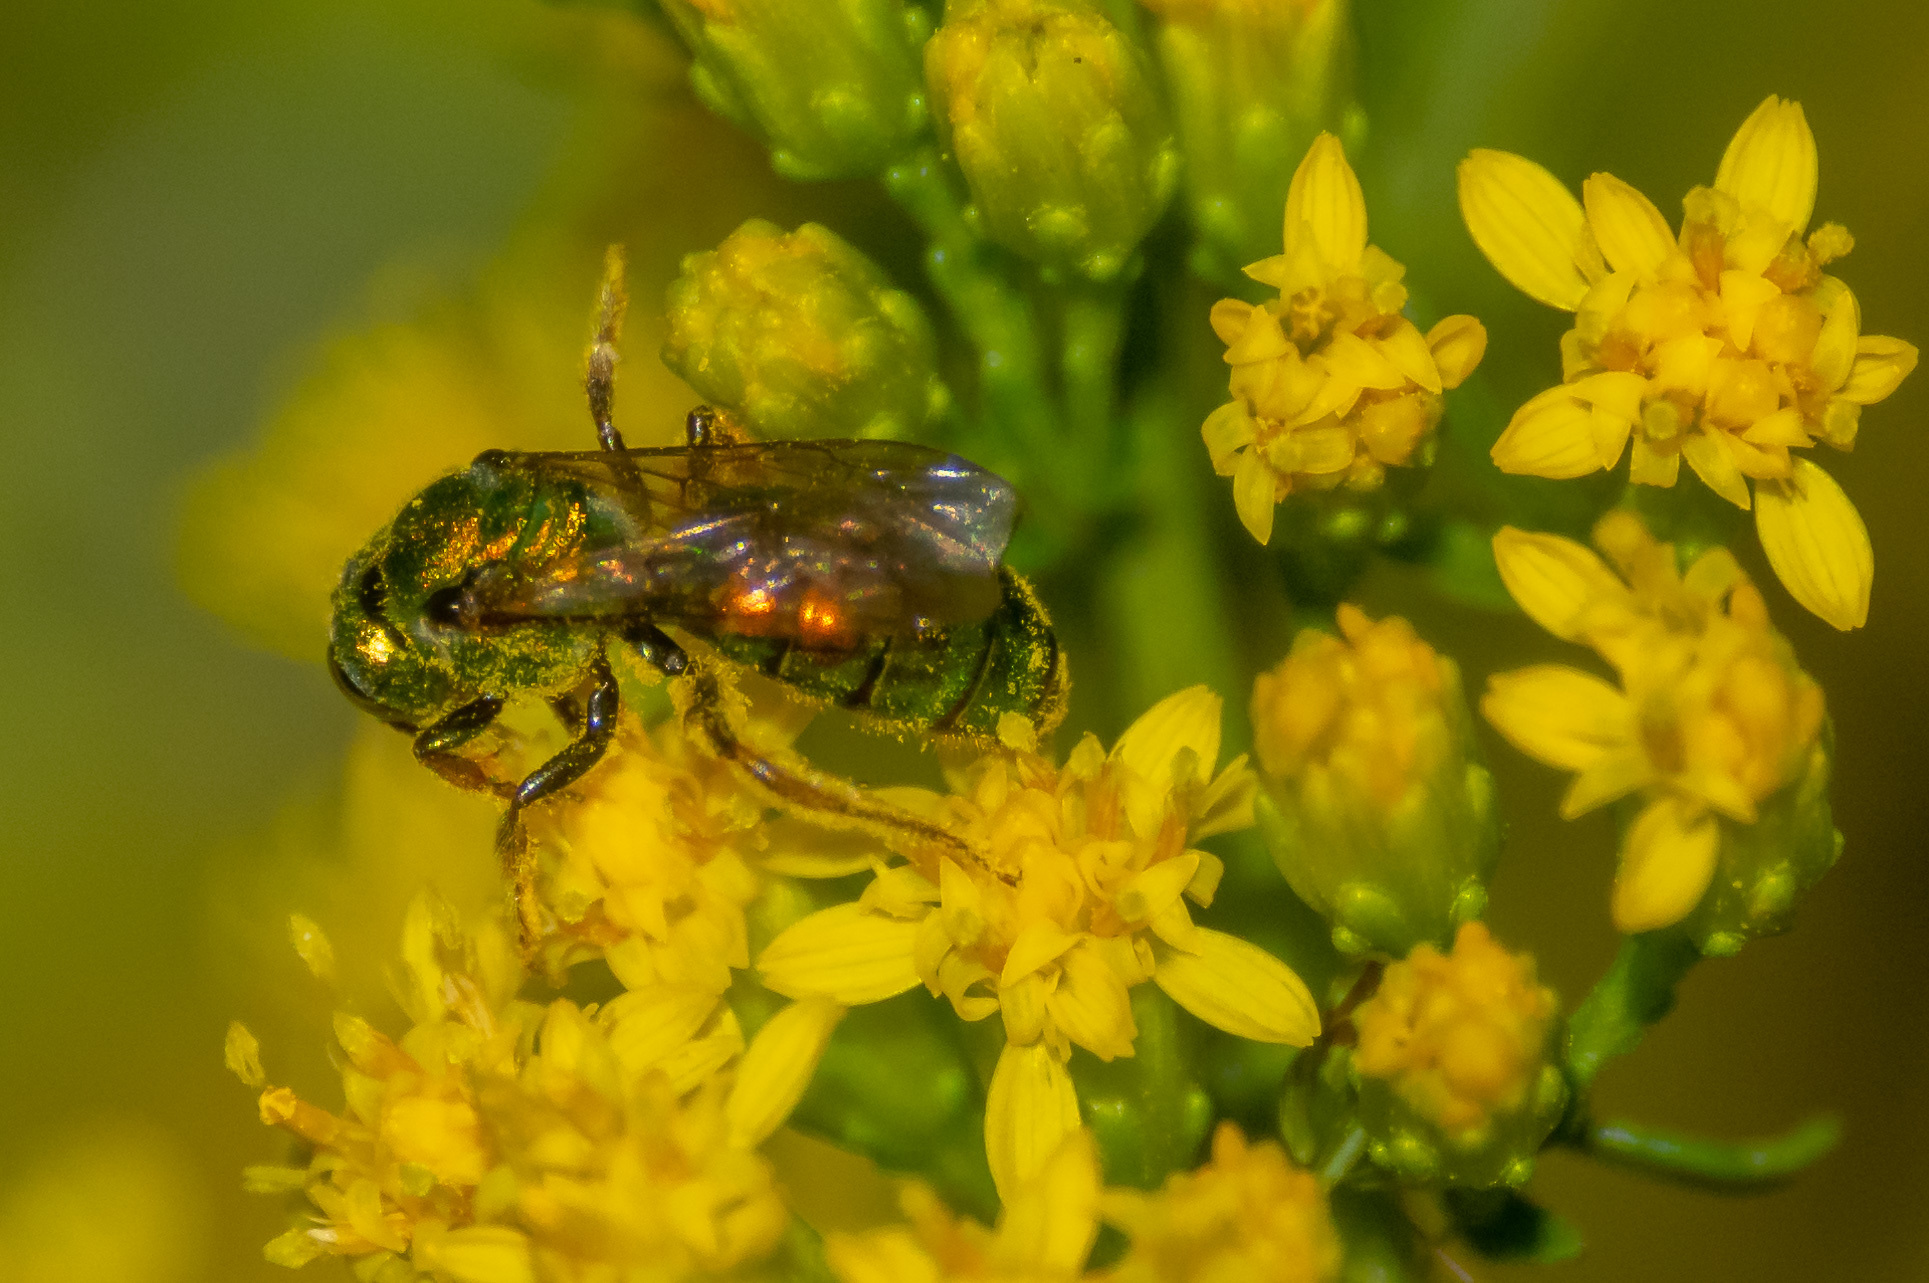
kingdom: Animalia
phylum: Arthropoda
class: Insecta
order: Hymenoptera
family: Halictidae
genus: Augochlora
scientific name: Augochlora pura
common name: Pure green sweat bee
